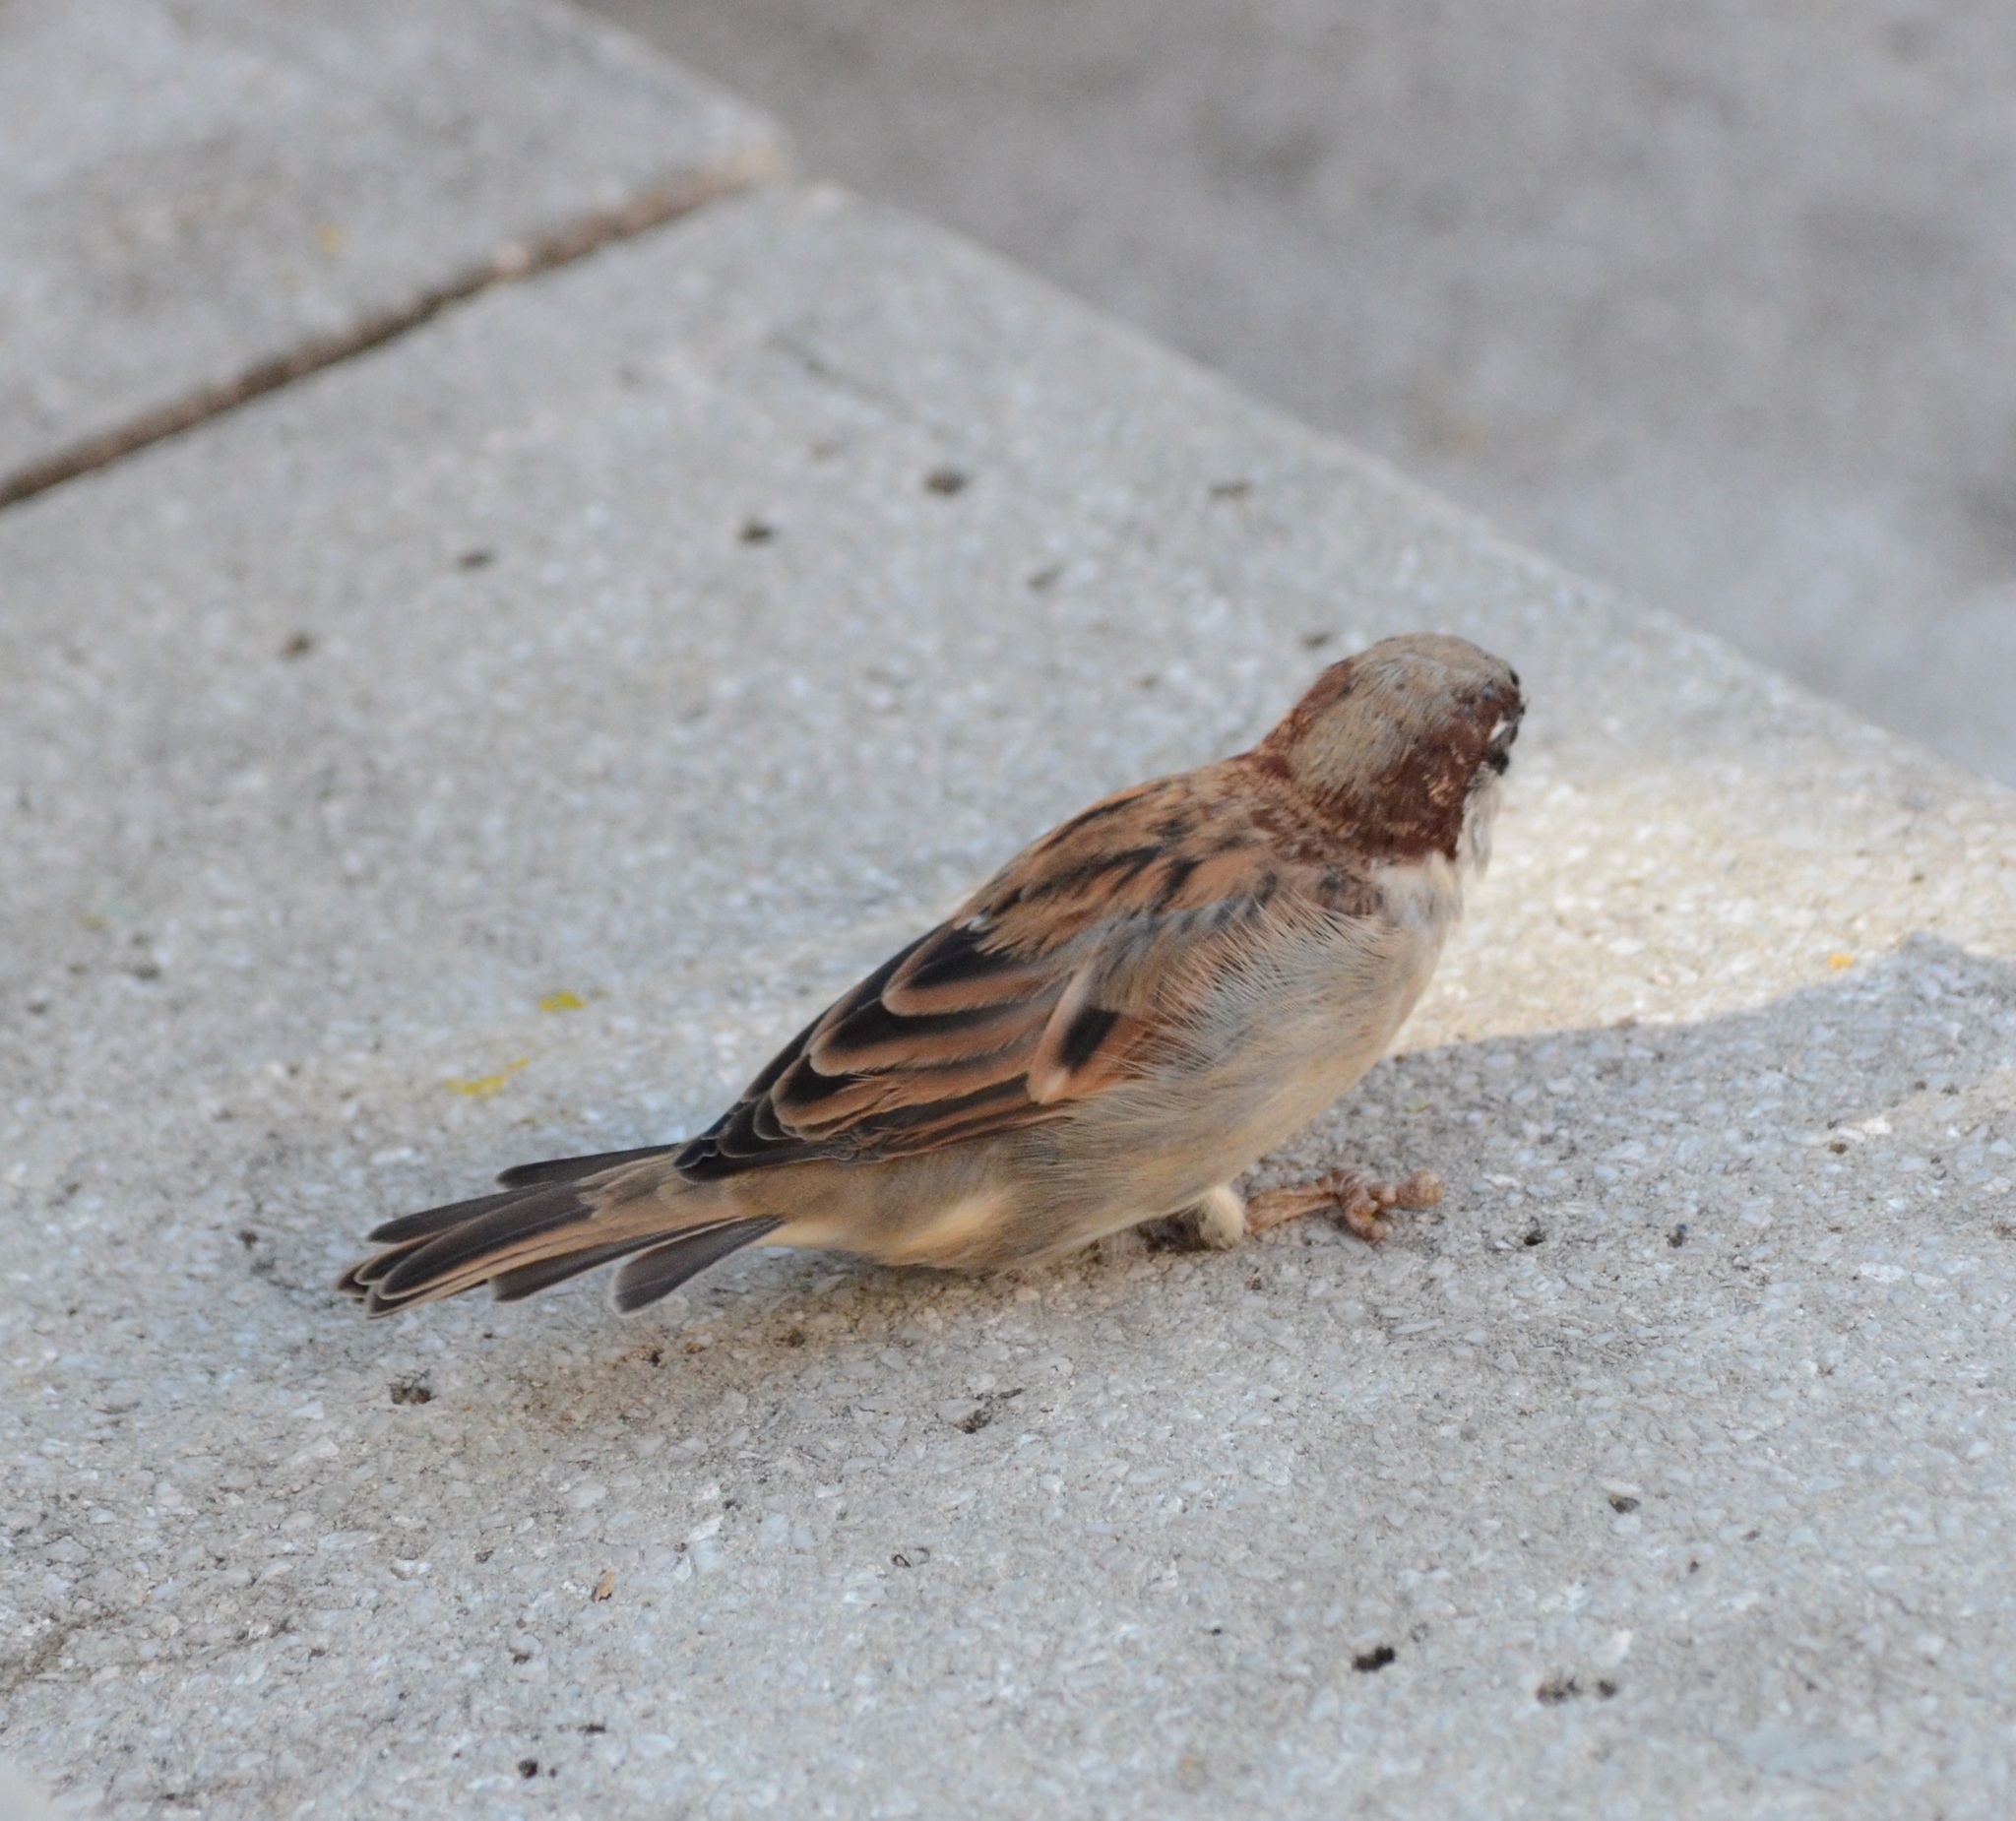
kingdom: Animalia
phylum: Chordata
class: Aves
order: Passeriformes
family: Passeridae
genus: Passer
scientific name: Passer domesticus
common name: House sparrow
